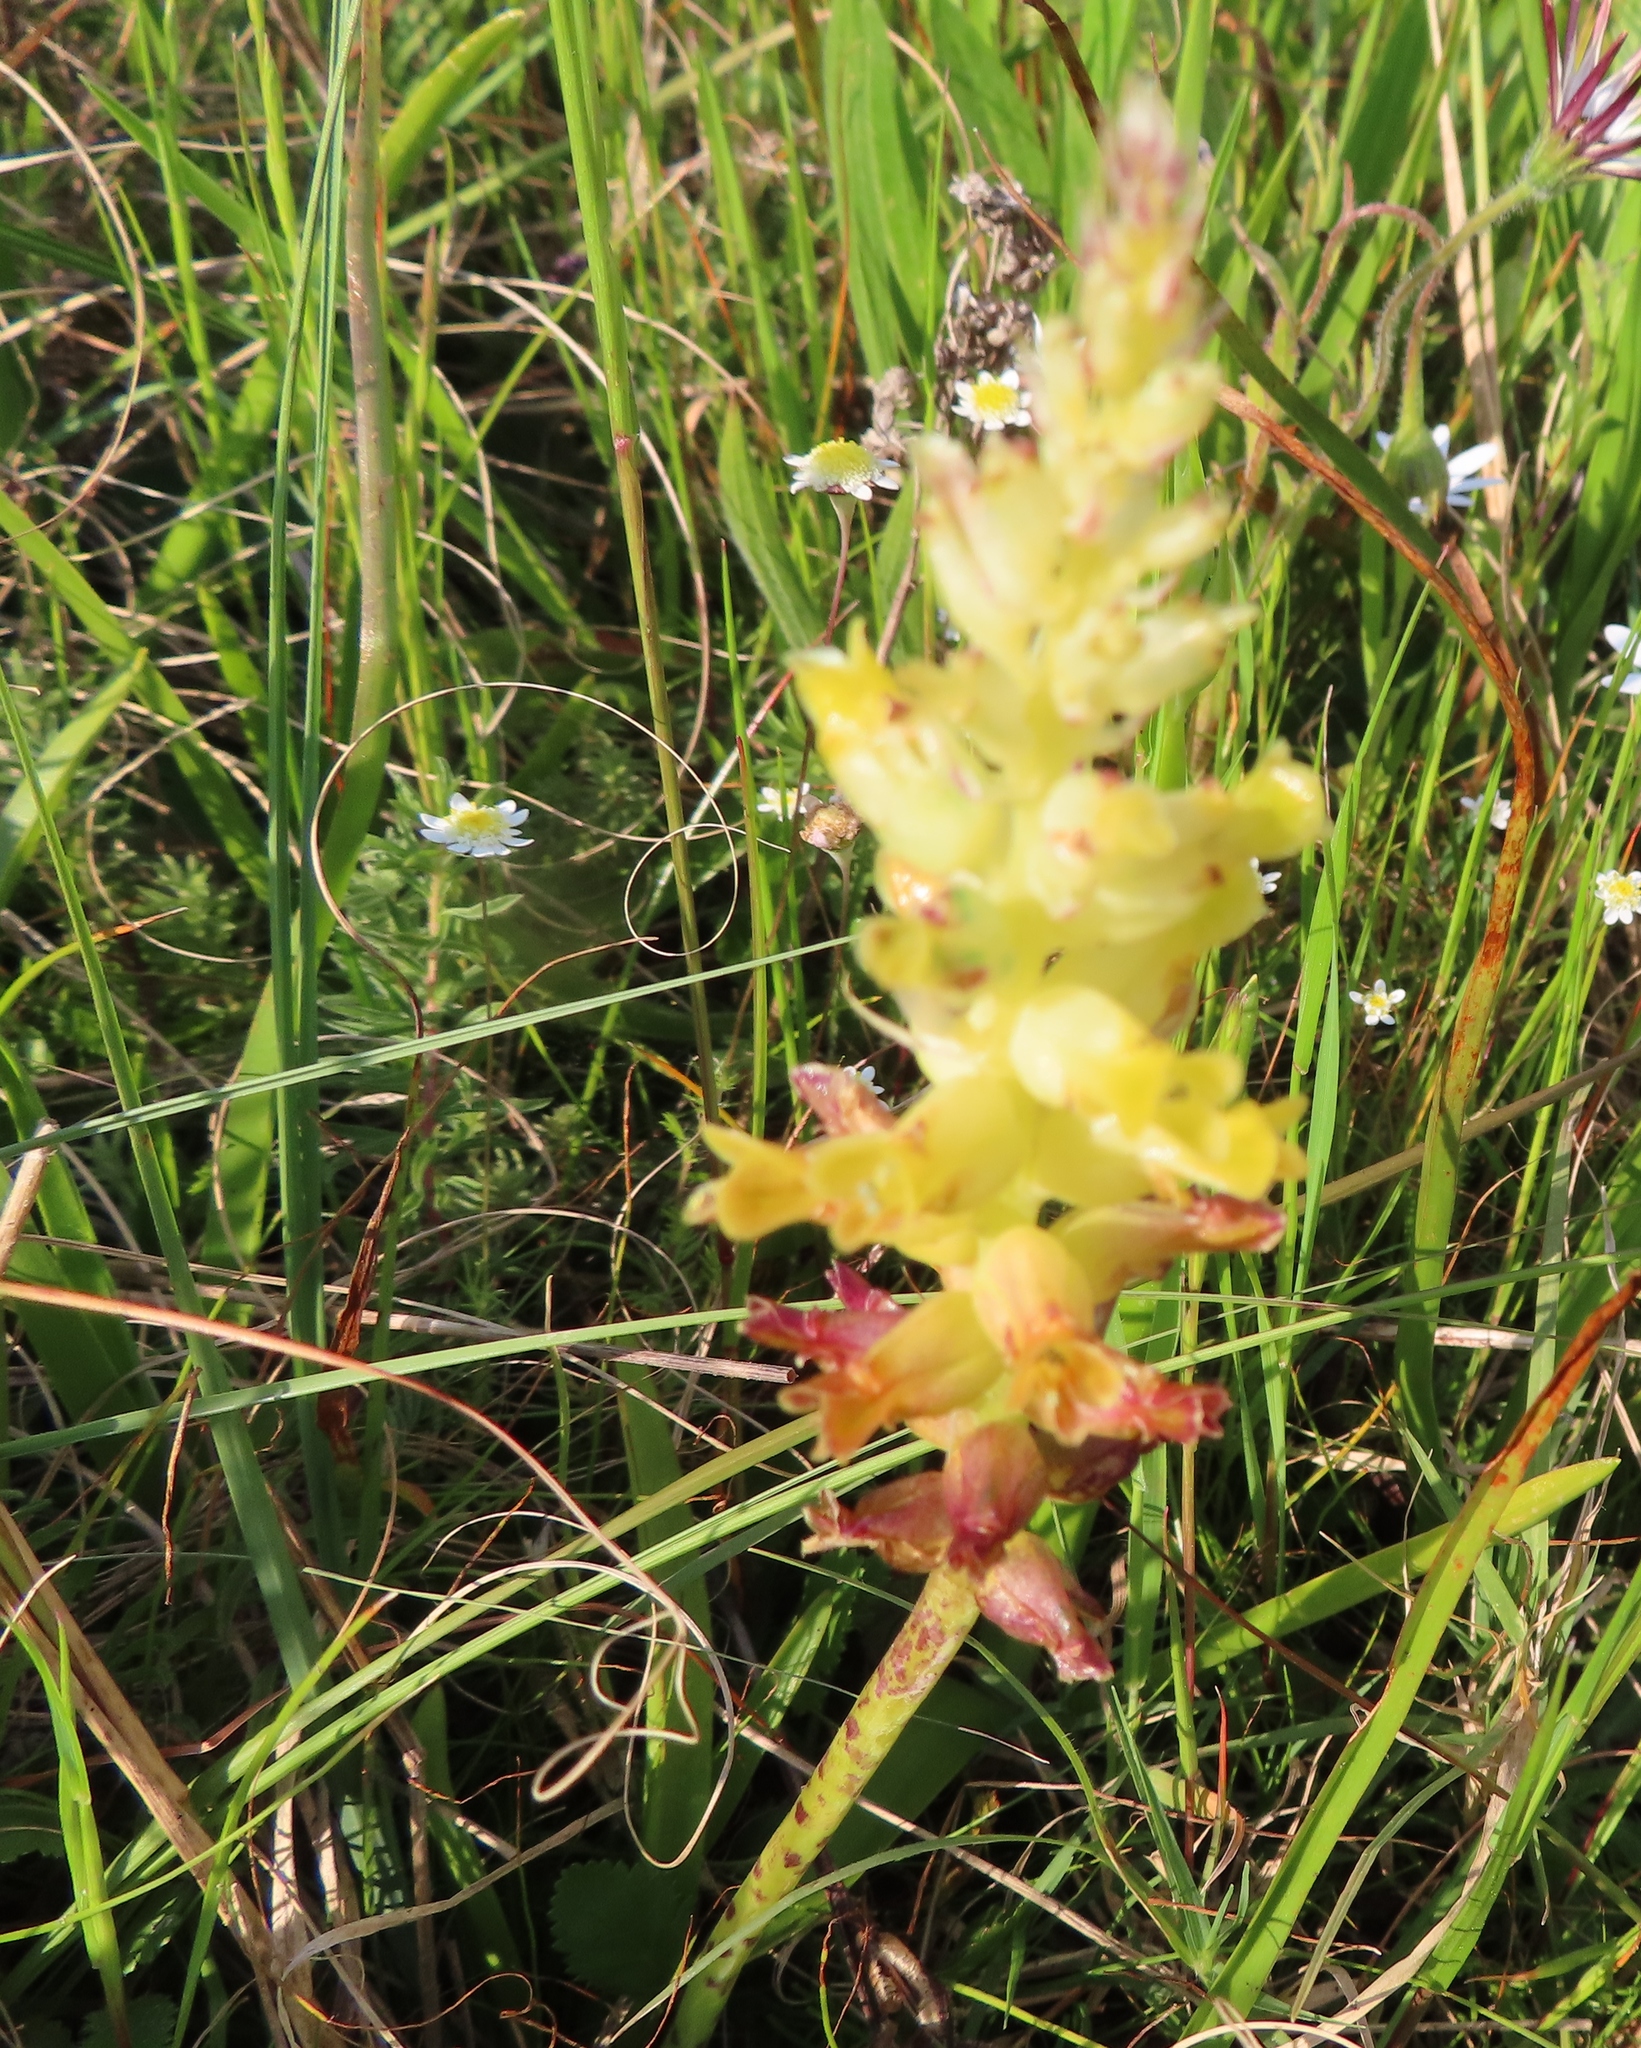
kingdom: Plantae
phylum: Tracheophyta
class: Liliopsida
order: Asparagales
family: Asparagaceae
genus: Lachenalia
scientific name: Lachenalia lutea
